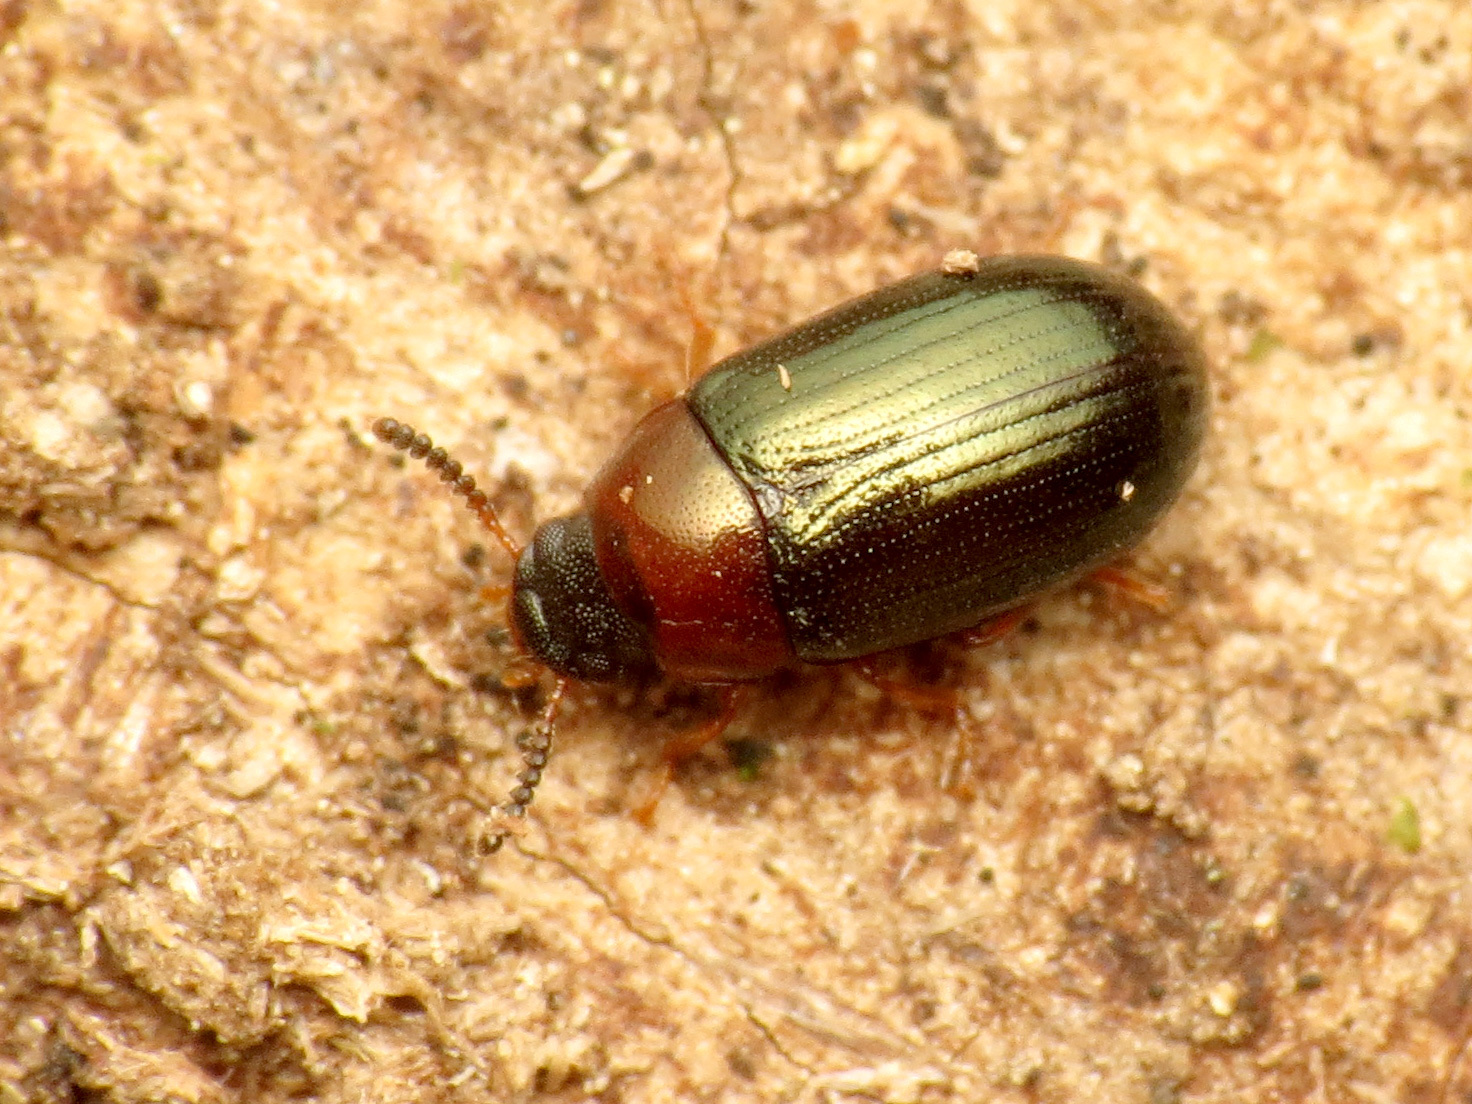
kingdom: Animalia
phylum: Arthropoda
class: Insecta
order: Coleoptera
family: Tenebrionidae
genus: Neomida
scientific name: Neomida bicornis
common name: Two-horned darkling beetle
